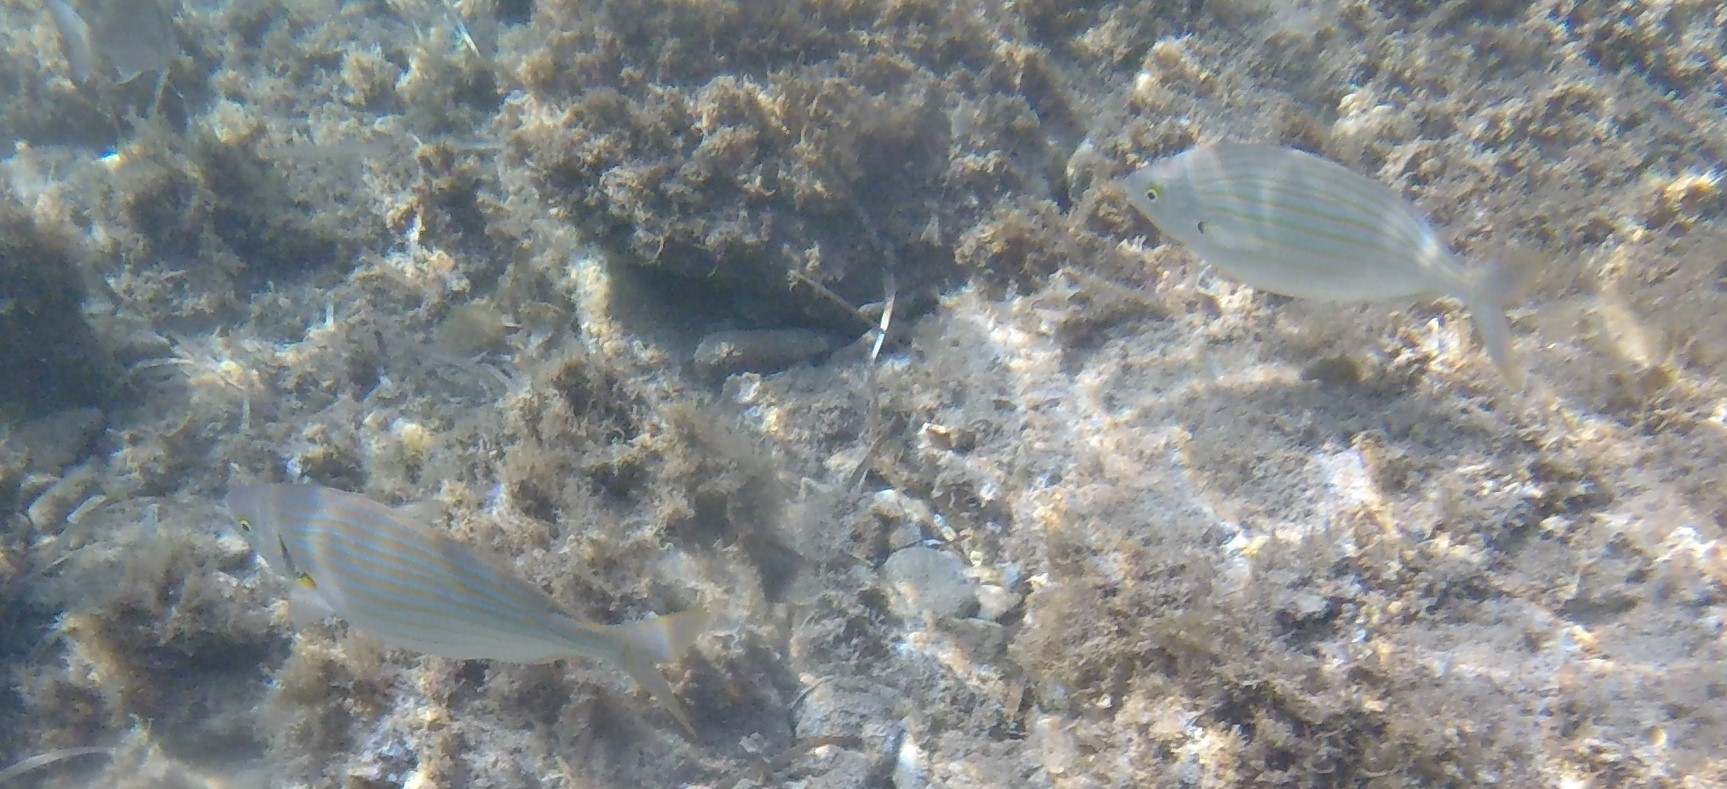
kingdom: Animalia
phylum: Chordata
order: Perciformes
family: Sparidae
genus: Sarpa
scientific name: Sarpa salpa
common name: Salema
